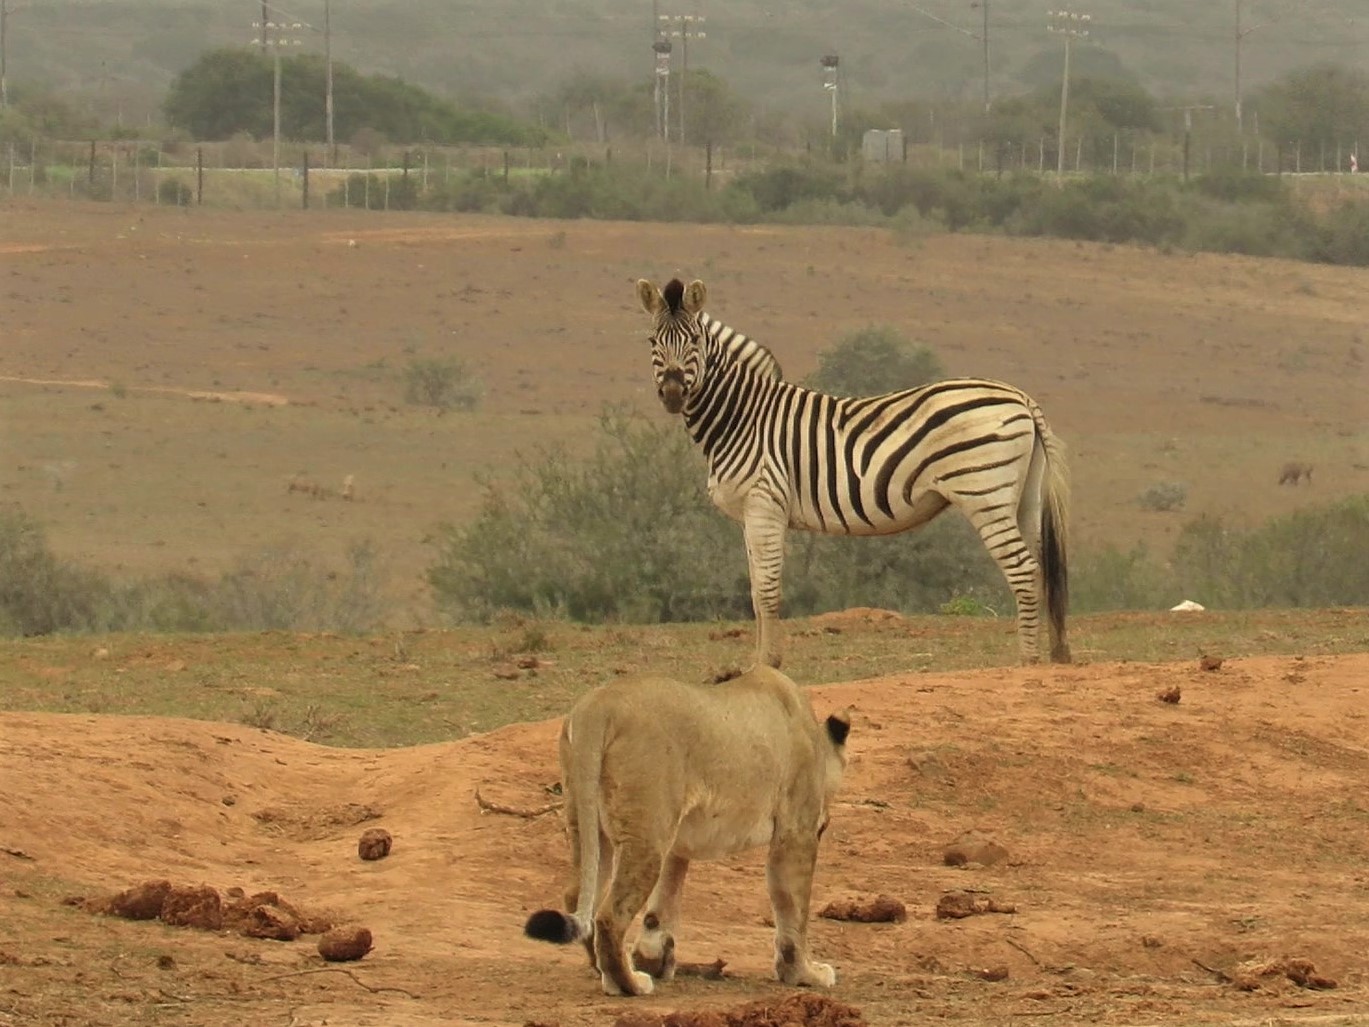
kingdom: Animalia
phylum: Chordata
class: Mammalia
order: Perissodactyla
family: Equidae
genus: Equus
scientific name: Equus quagga
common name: Plains zebra
